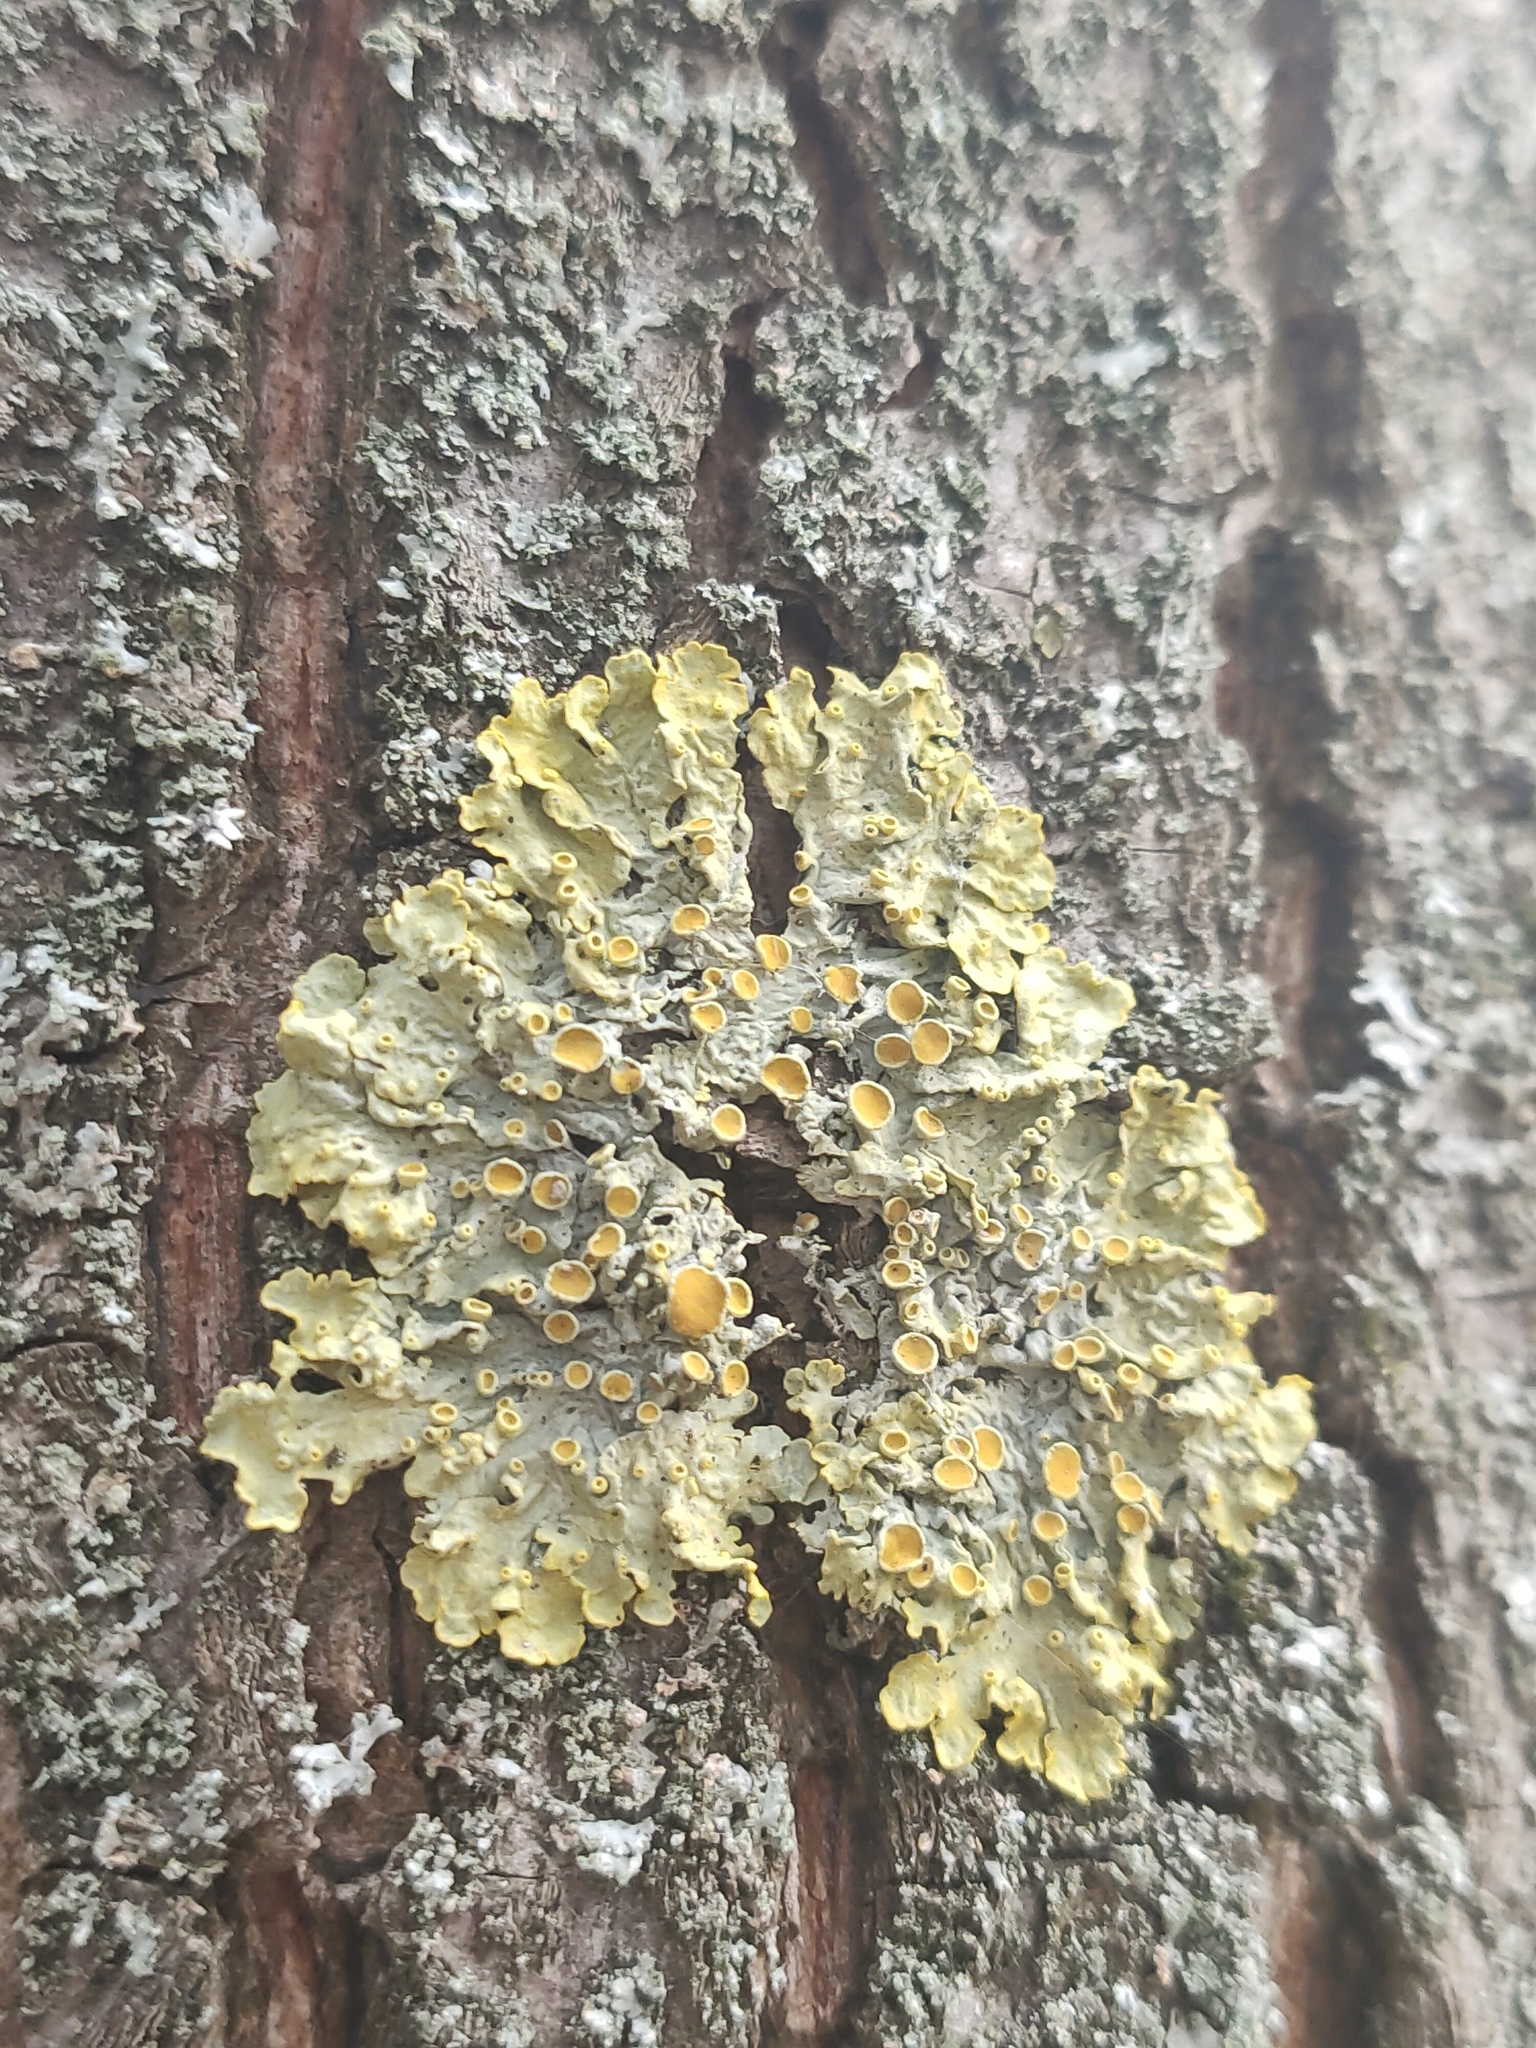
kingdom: Fungi
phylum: Ascomycota
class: Lecanoromycetes
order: Teloschistales
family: Teloschistaceae
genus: Xanthoria
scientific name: Xanthoria parietina
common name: Common orange lichen
